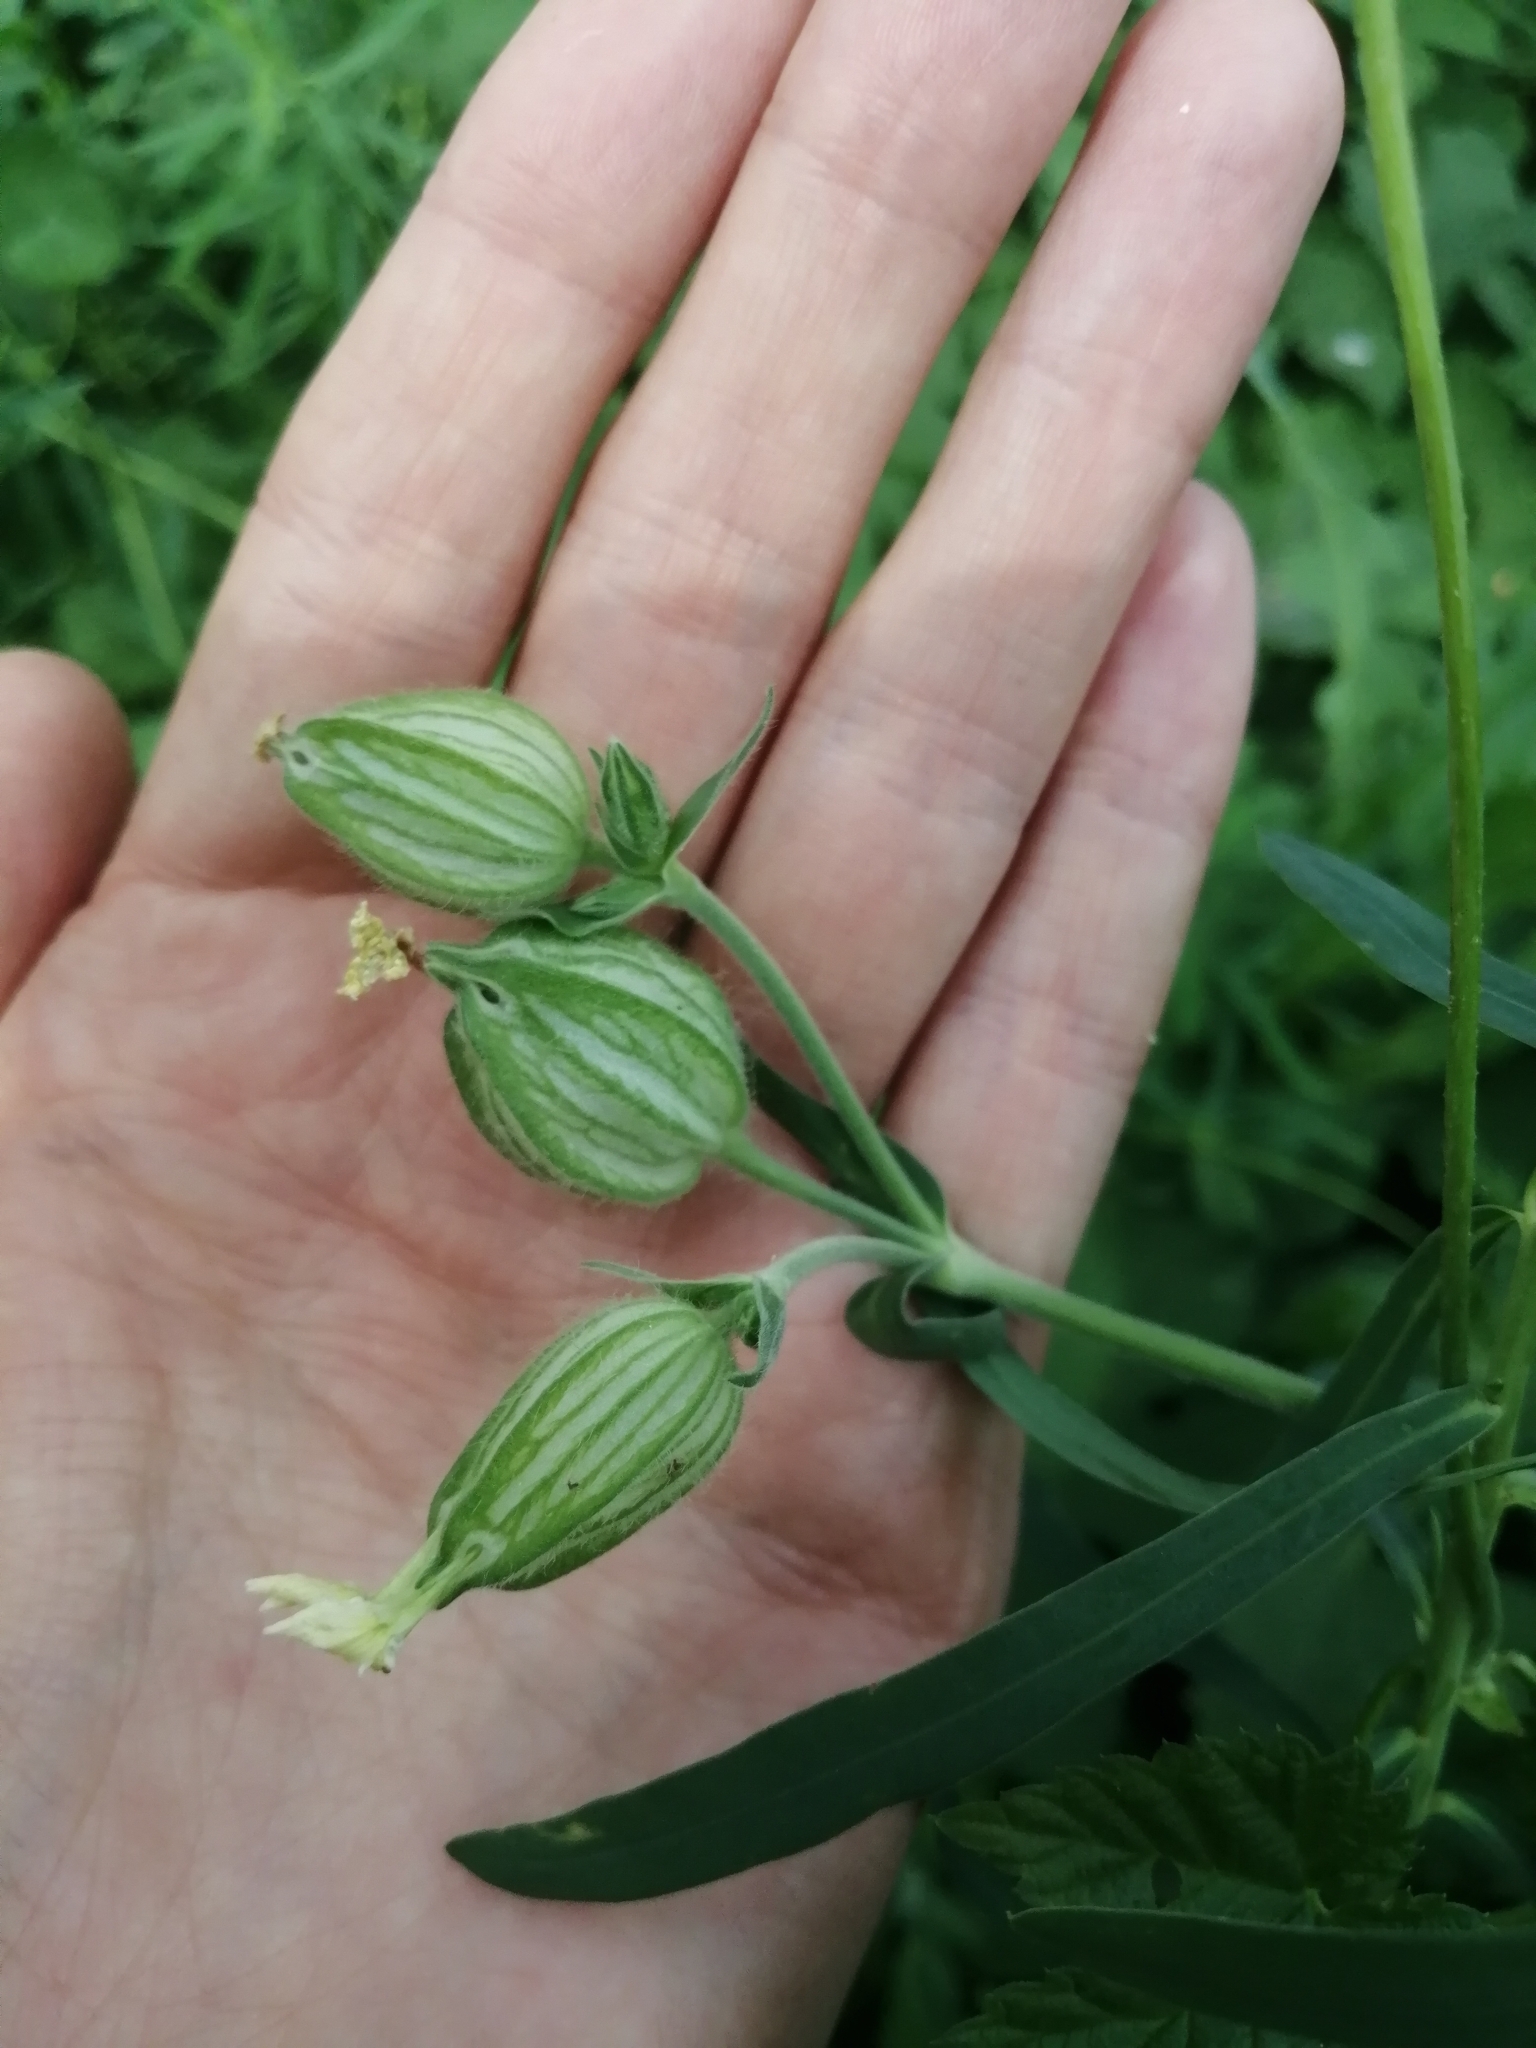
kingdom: Plantae
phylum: Tracheophyta
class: Magnoliopsida
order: Caryophyllales
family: Caryophyllaceae
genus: Silene
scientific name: Silene latifolia
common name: White campion
